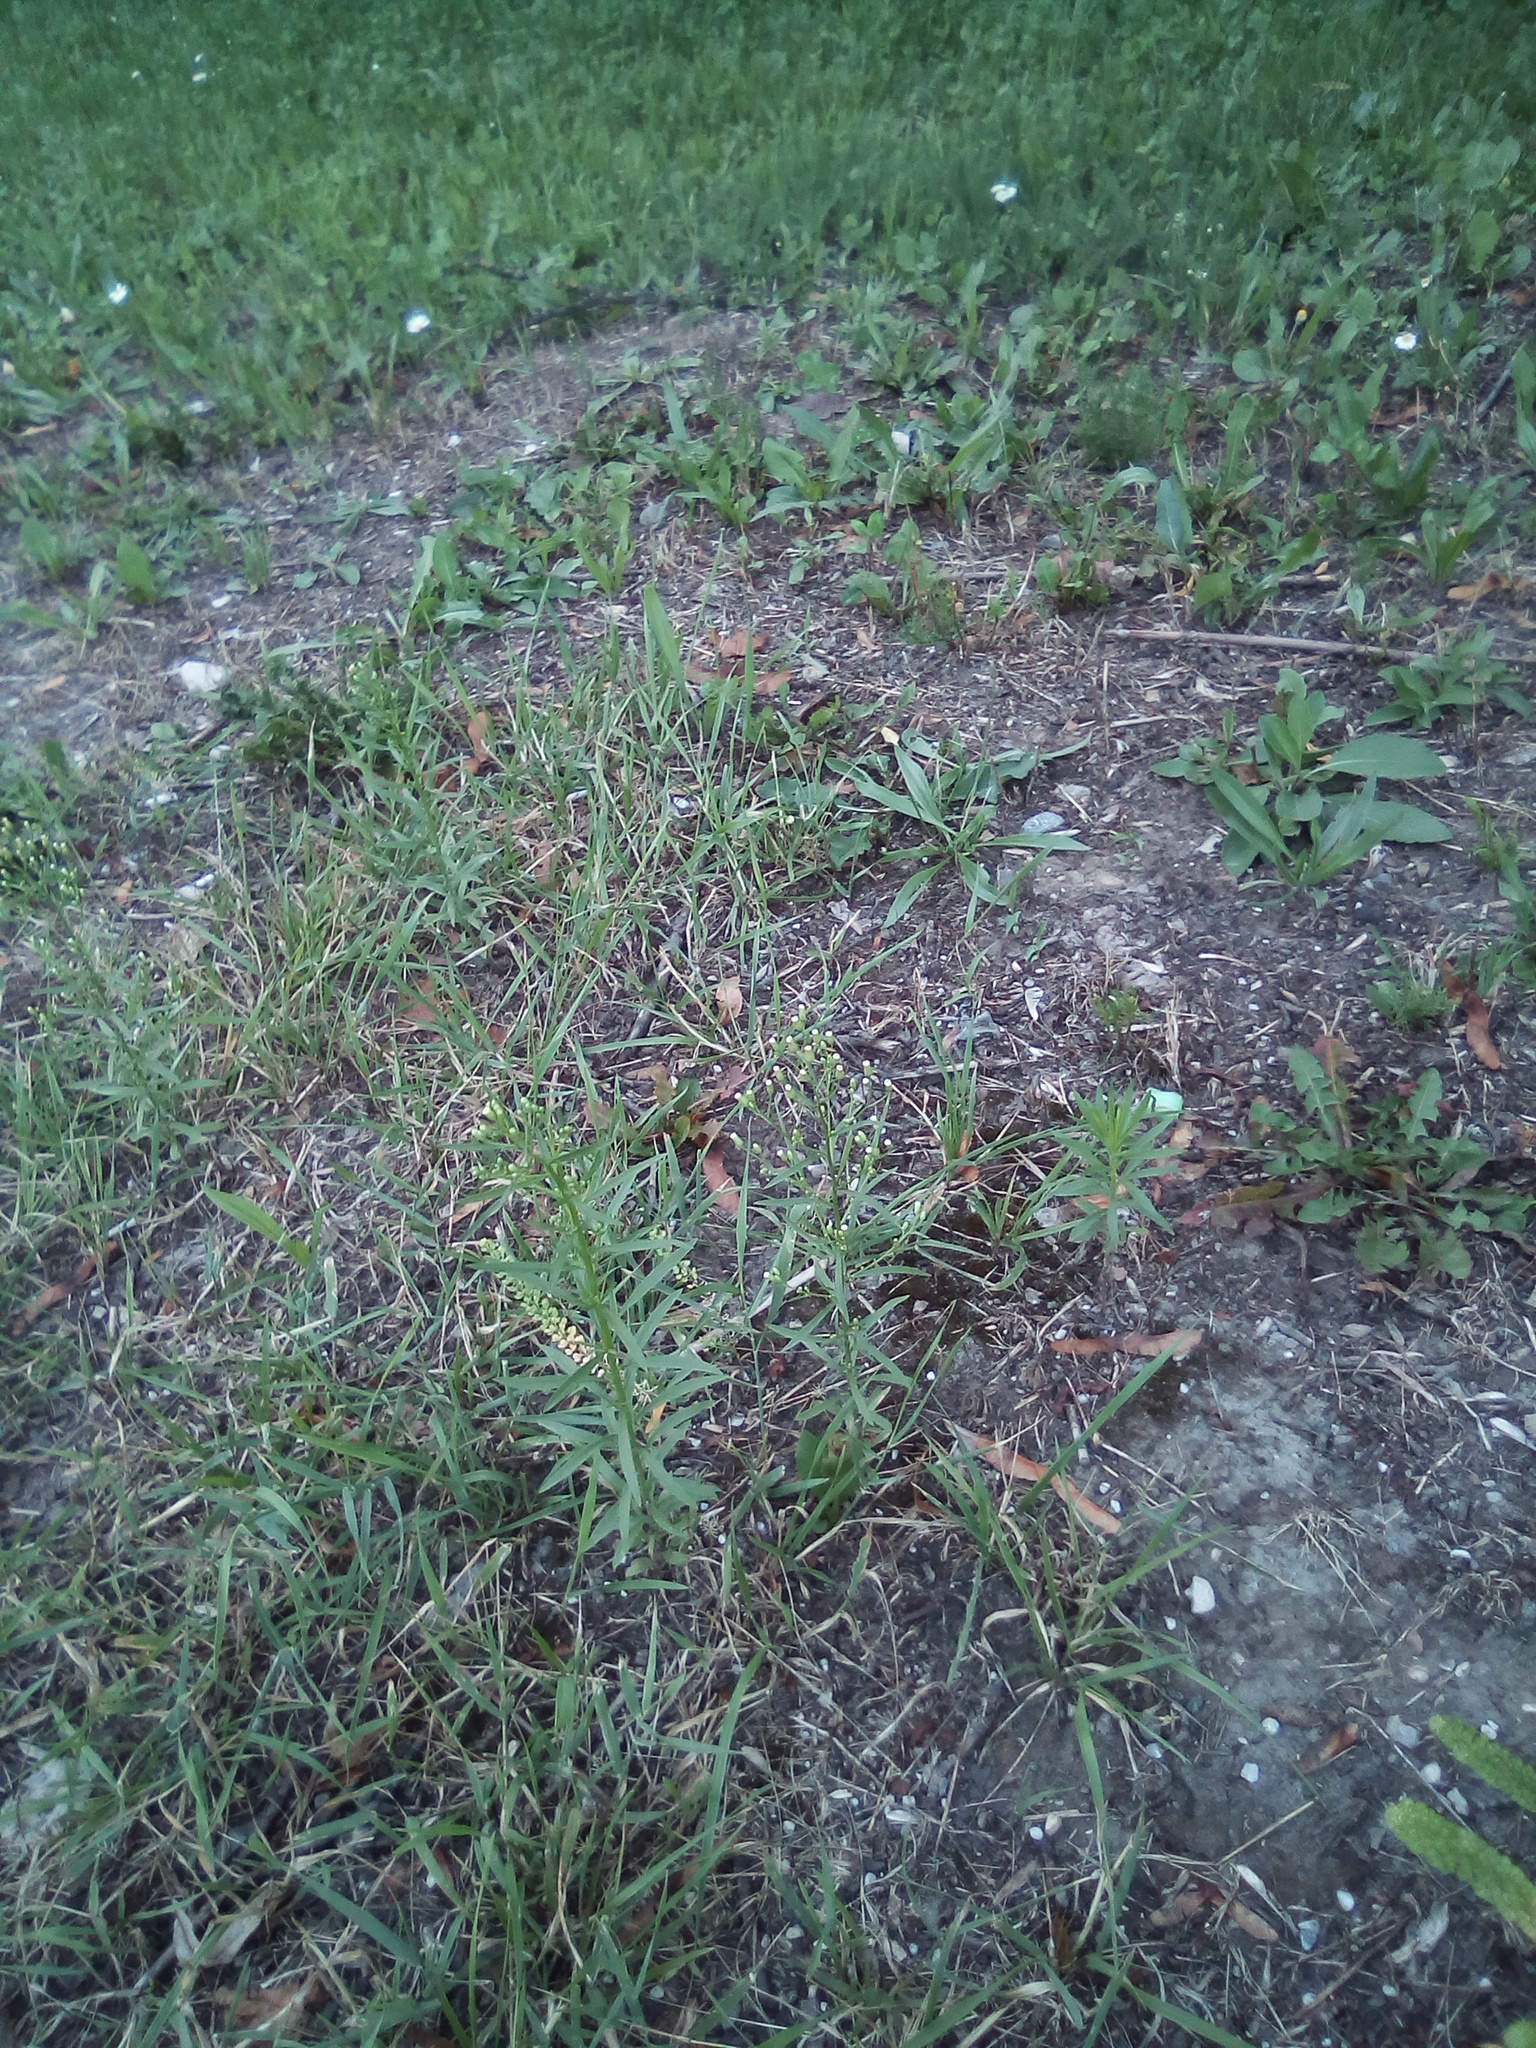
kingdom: Plantae
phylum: Tracheophyta
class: Magnoliopsida
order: Asterales
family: Asteraceae
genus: Erigeron
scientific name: Erigeron canadensis
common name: Canadian fleabane
